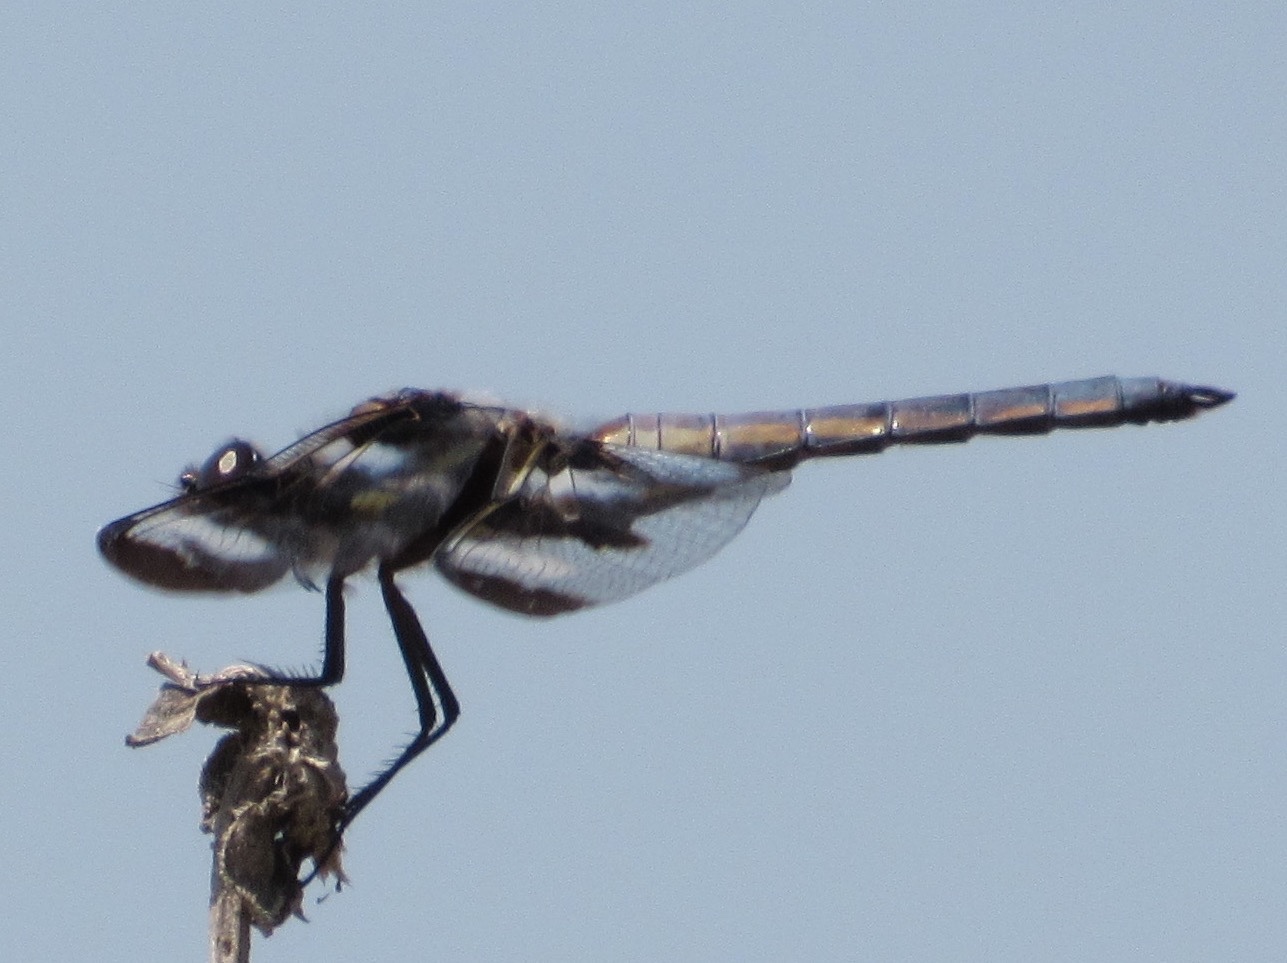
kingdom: Animalia
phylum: Arthropoda
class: Insecta
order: Odonata
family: Libellulidae
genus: Libellula
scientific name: Libellula pulchella
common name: Twelve-spotted skimmer
